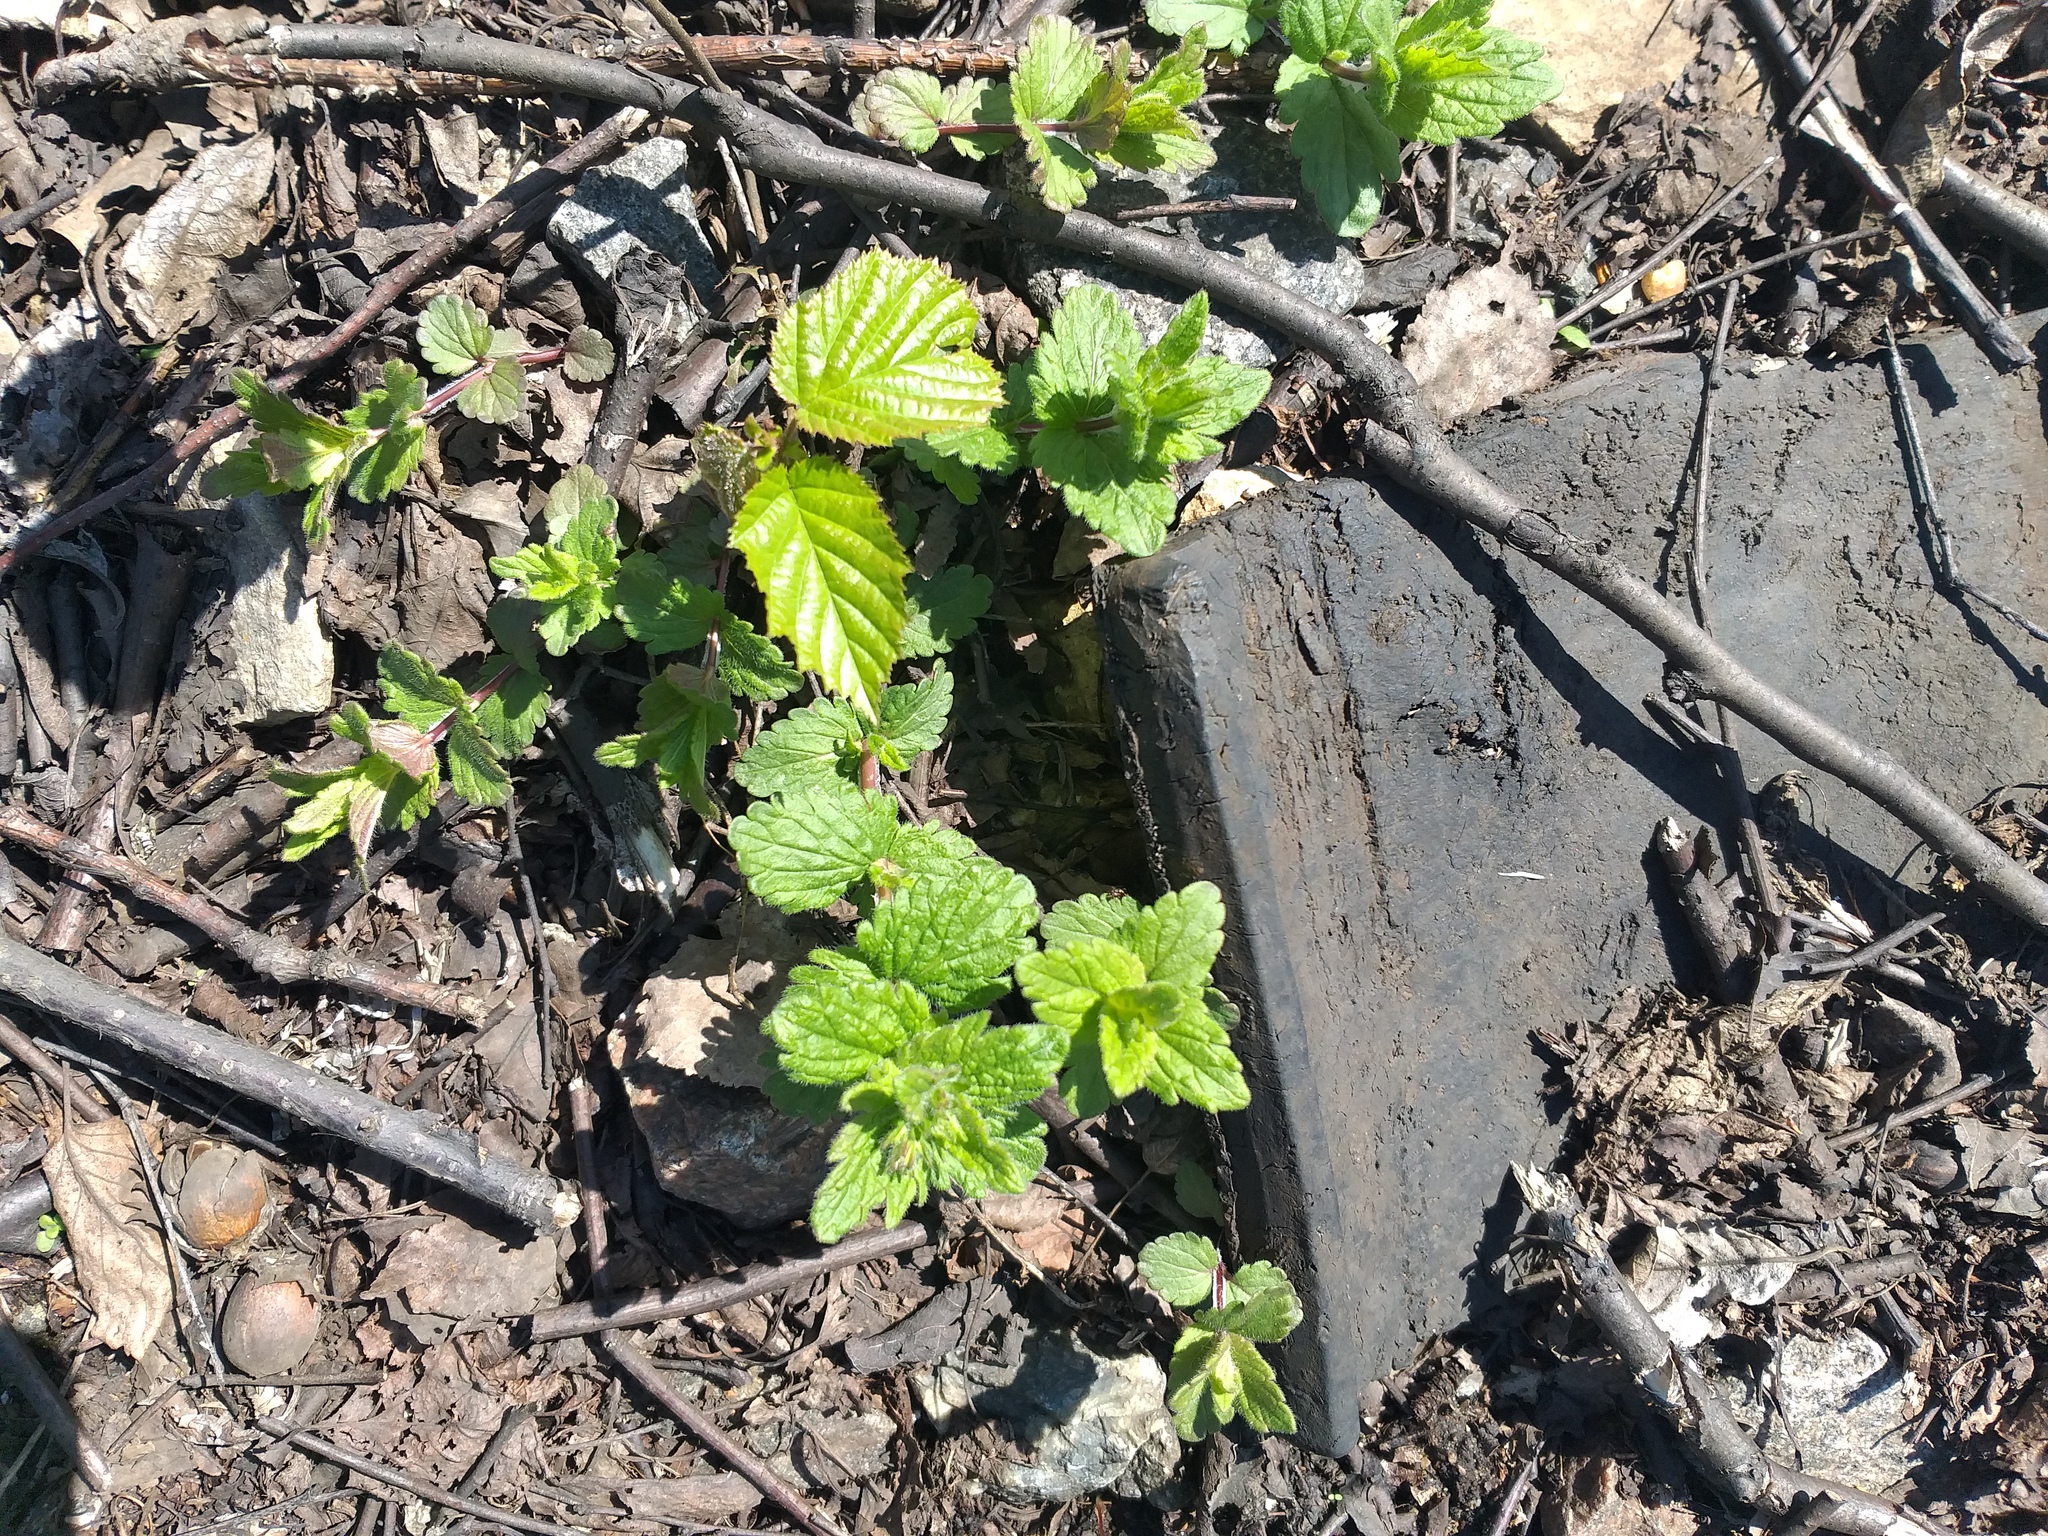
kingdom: Plantae
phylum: Tracheophyta
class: Magnoliopsida
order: Lamiales
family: Plantaginaceae
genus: Veronica
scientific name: Veronica chamaedrys
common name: Germander speedwell
